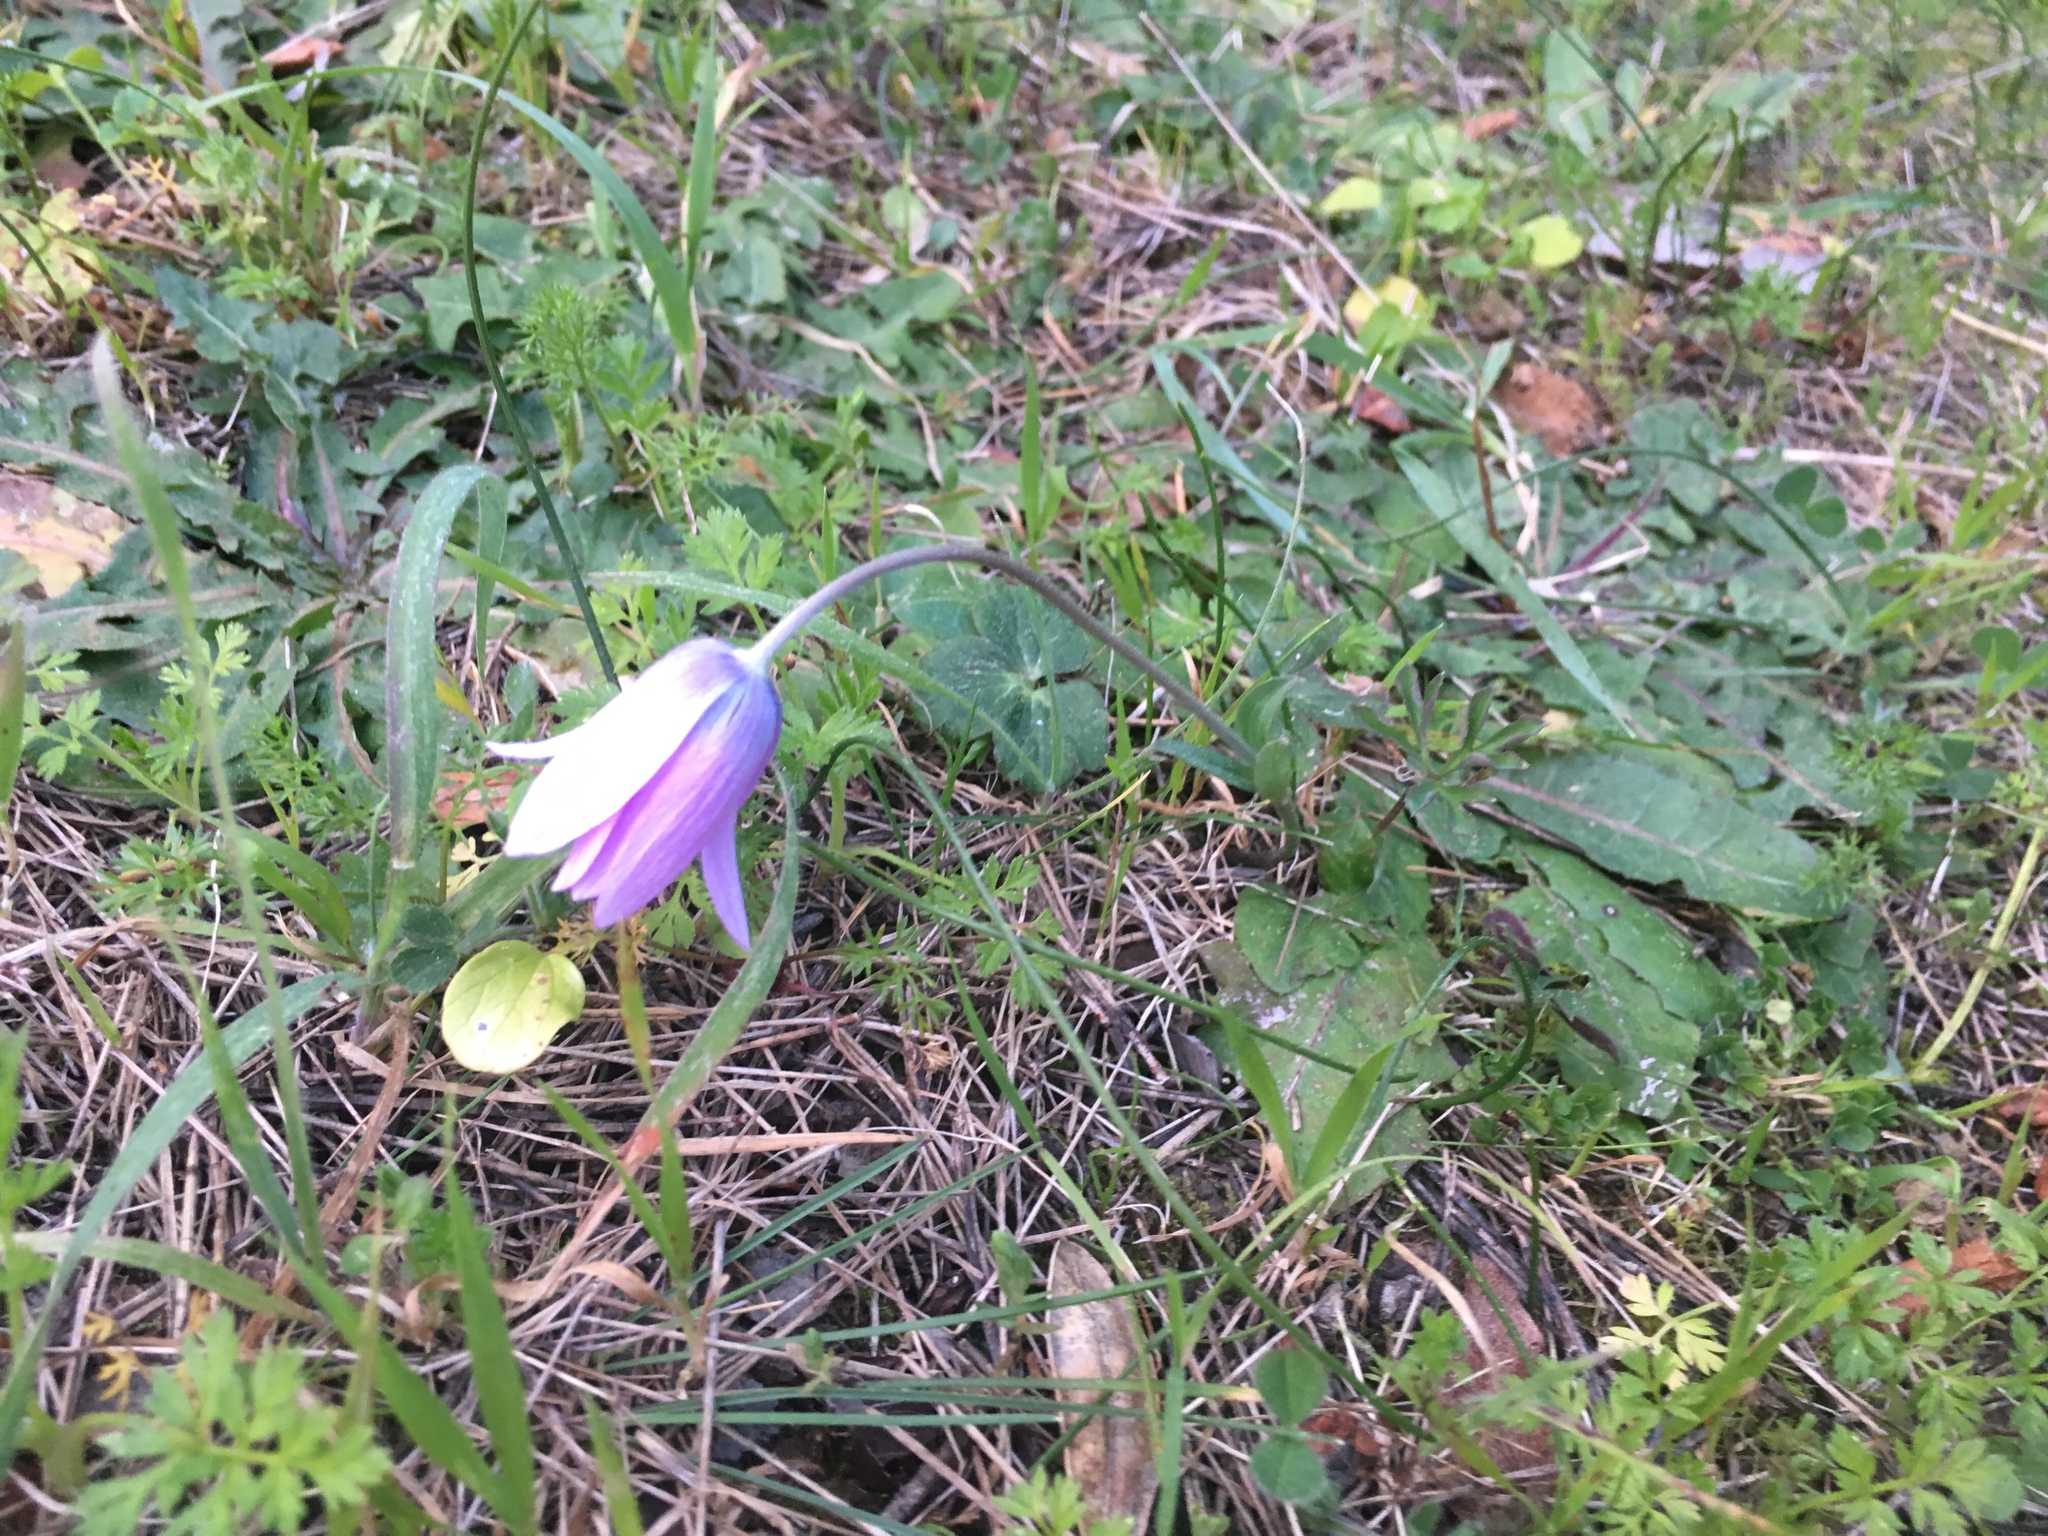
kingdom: Plantae
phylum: Tracheophyta
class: Magnoliopsida
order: Ranunculales
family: Ranunculaceae
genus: Anemone
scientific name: Anemone hortensis
